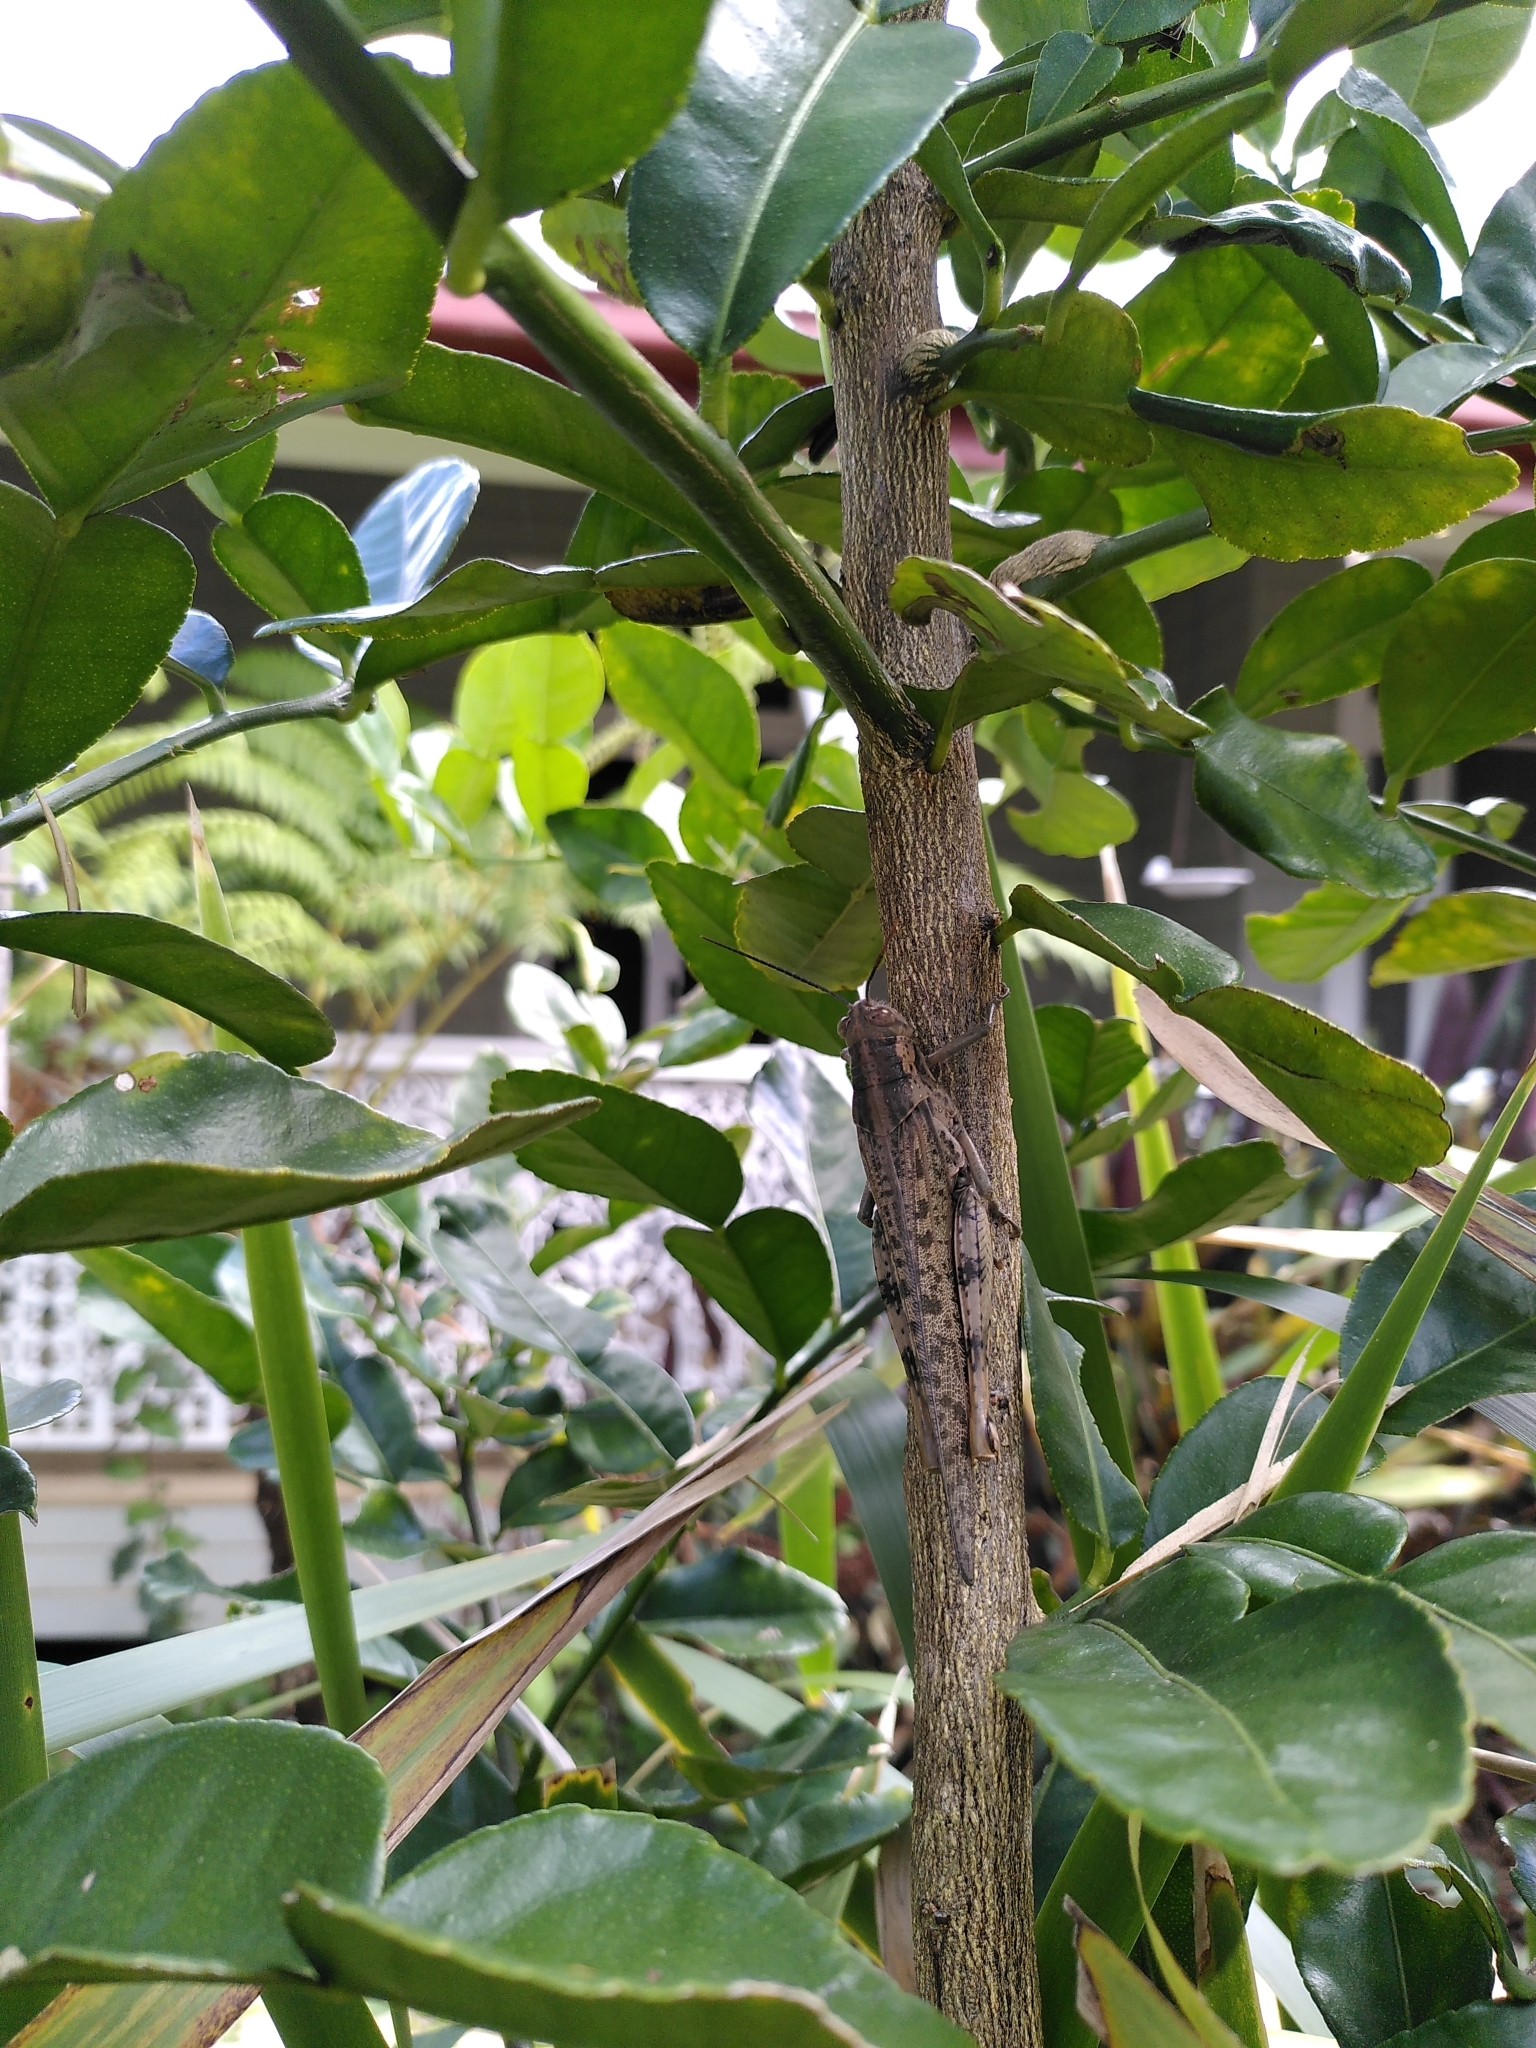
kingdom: Animalia
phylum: Arthropoda
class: Insecta
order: Orthoptera
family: Acrididae
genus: Valanga
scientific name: Valanga irregularis
